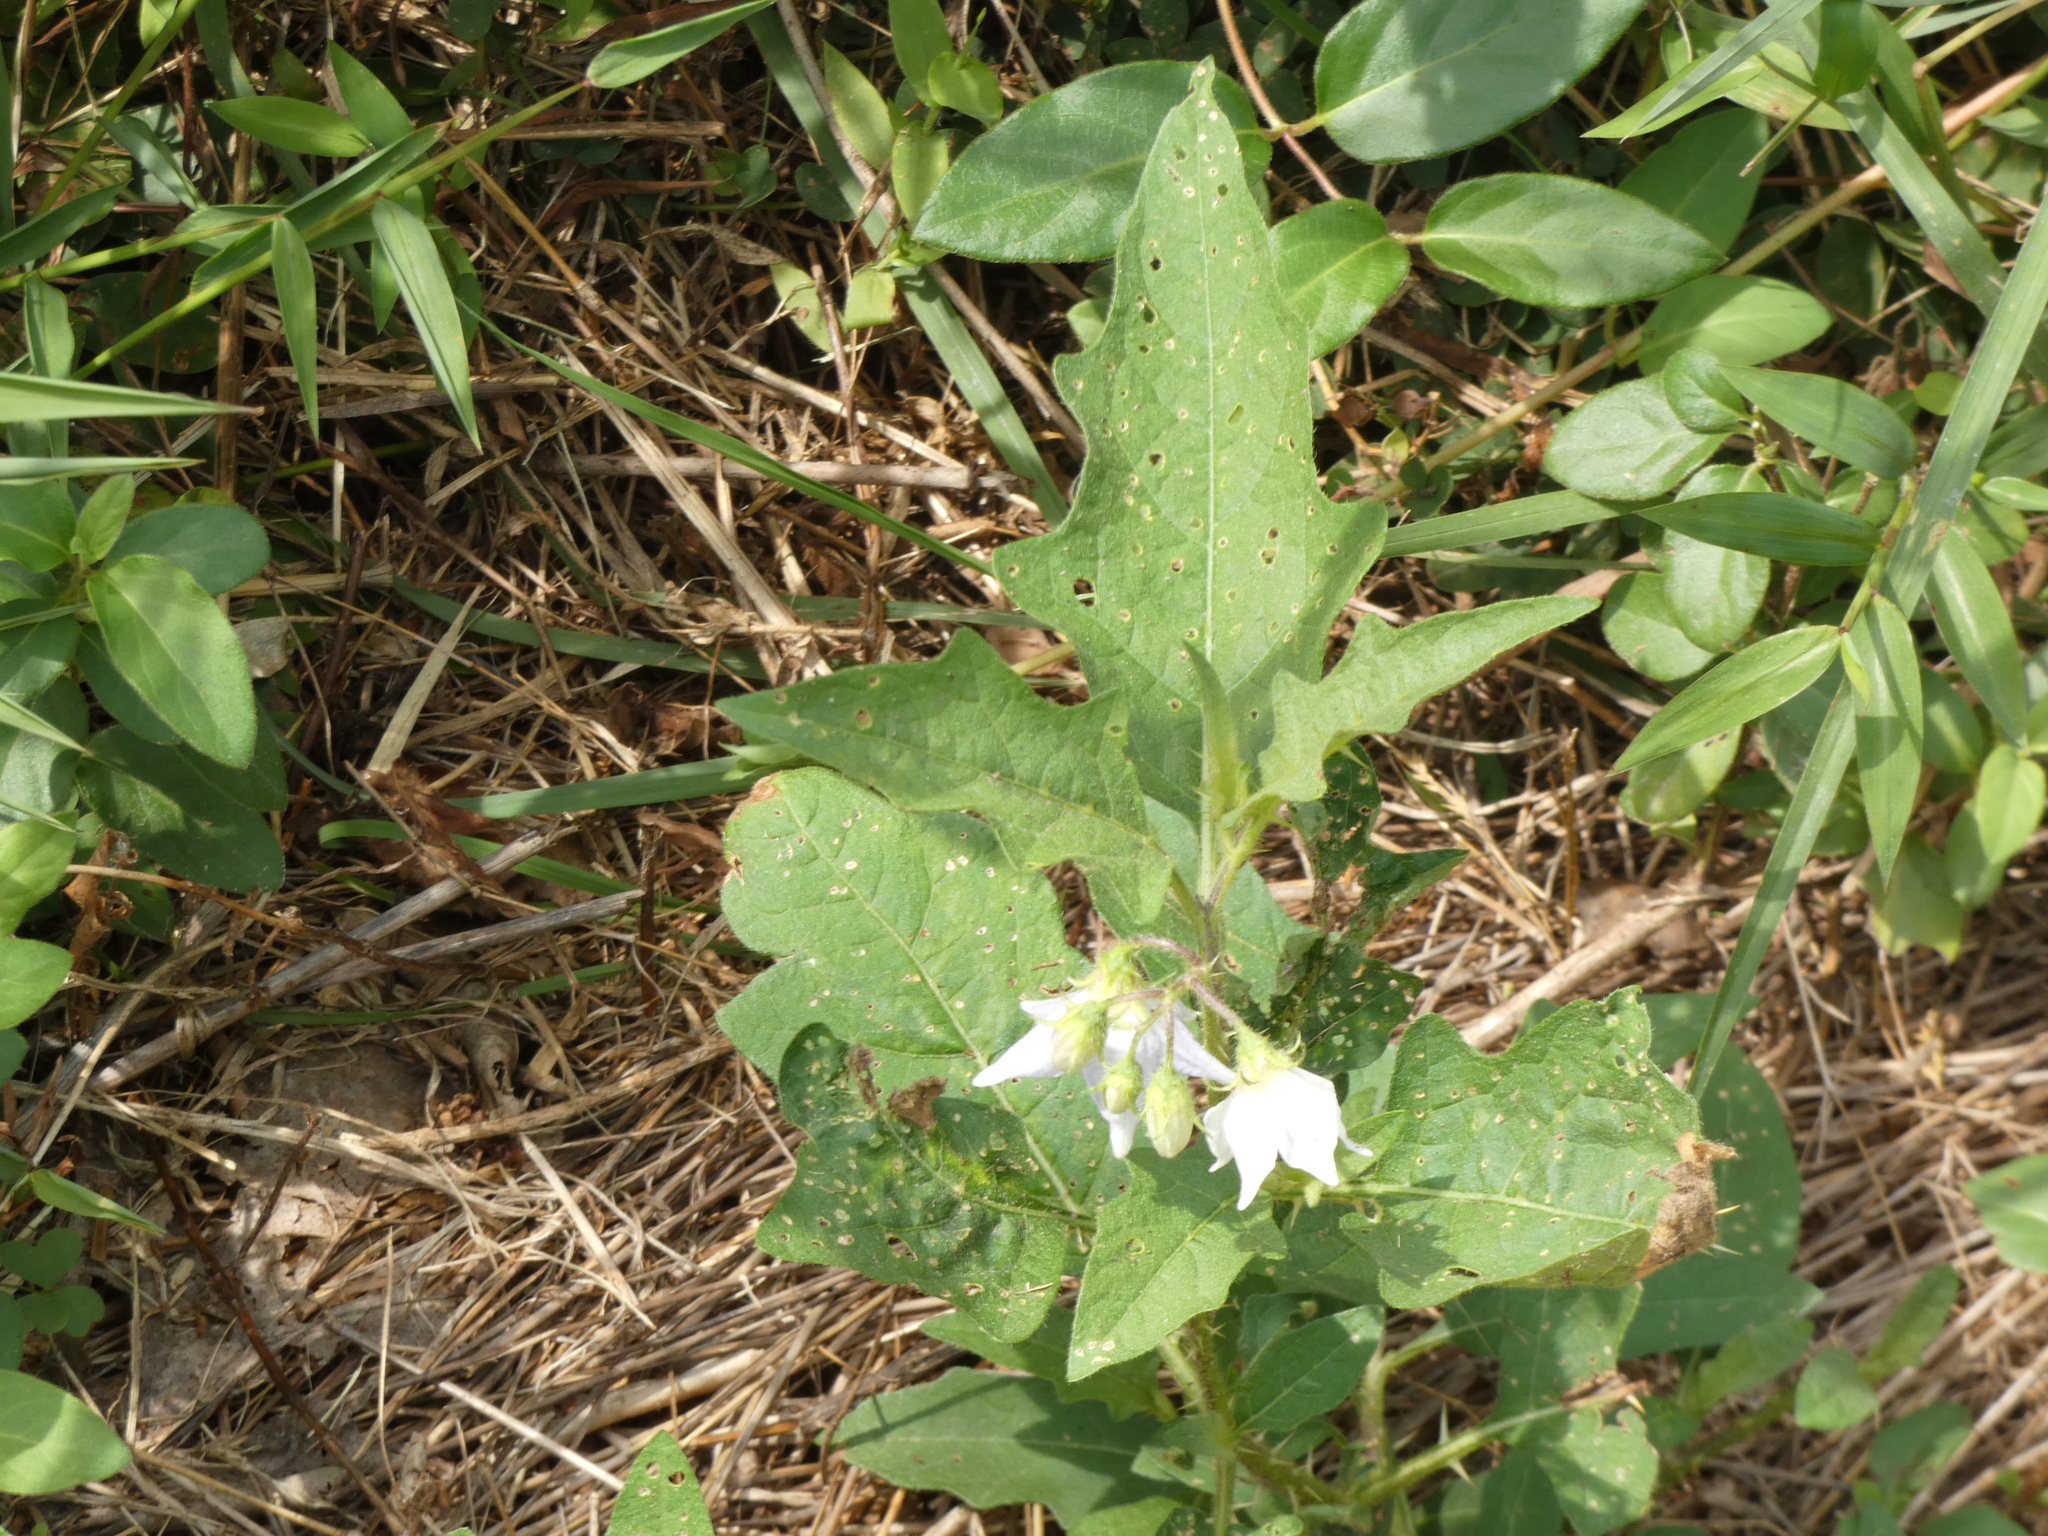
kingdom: Plantae
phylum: Tracheophyta
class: Magnoliopsida
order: Solanales
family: Solanaceae
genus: Solanum
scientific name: Solanum carolinense
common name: Horse-nettle
